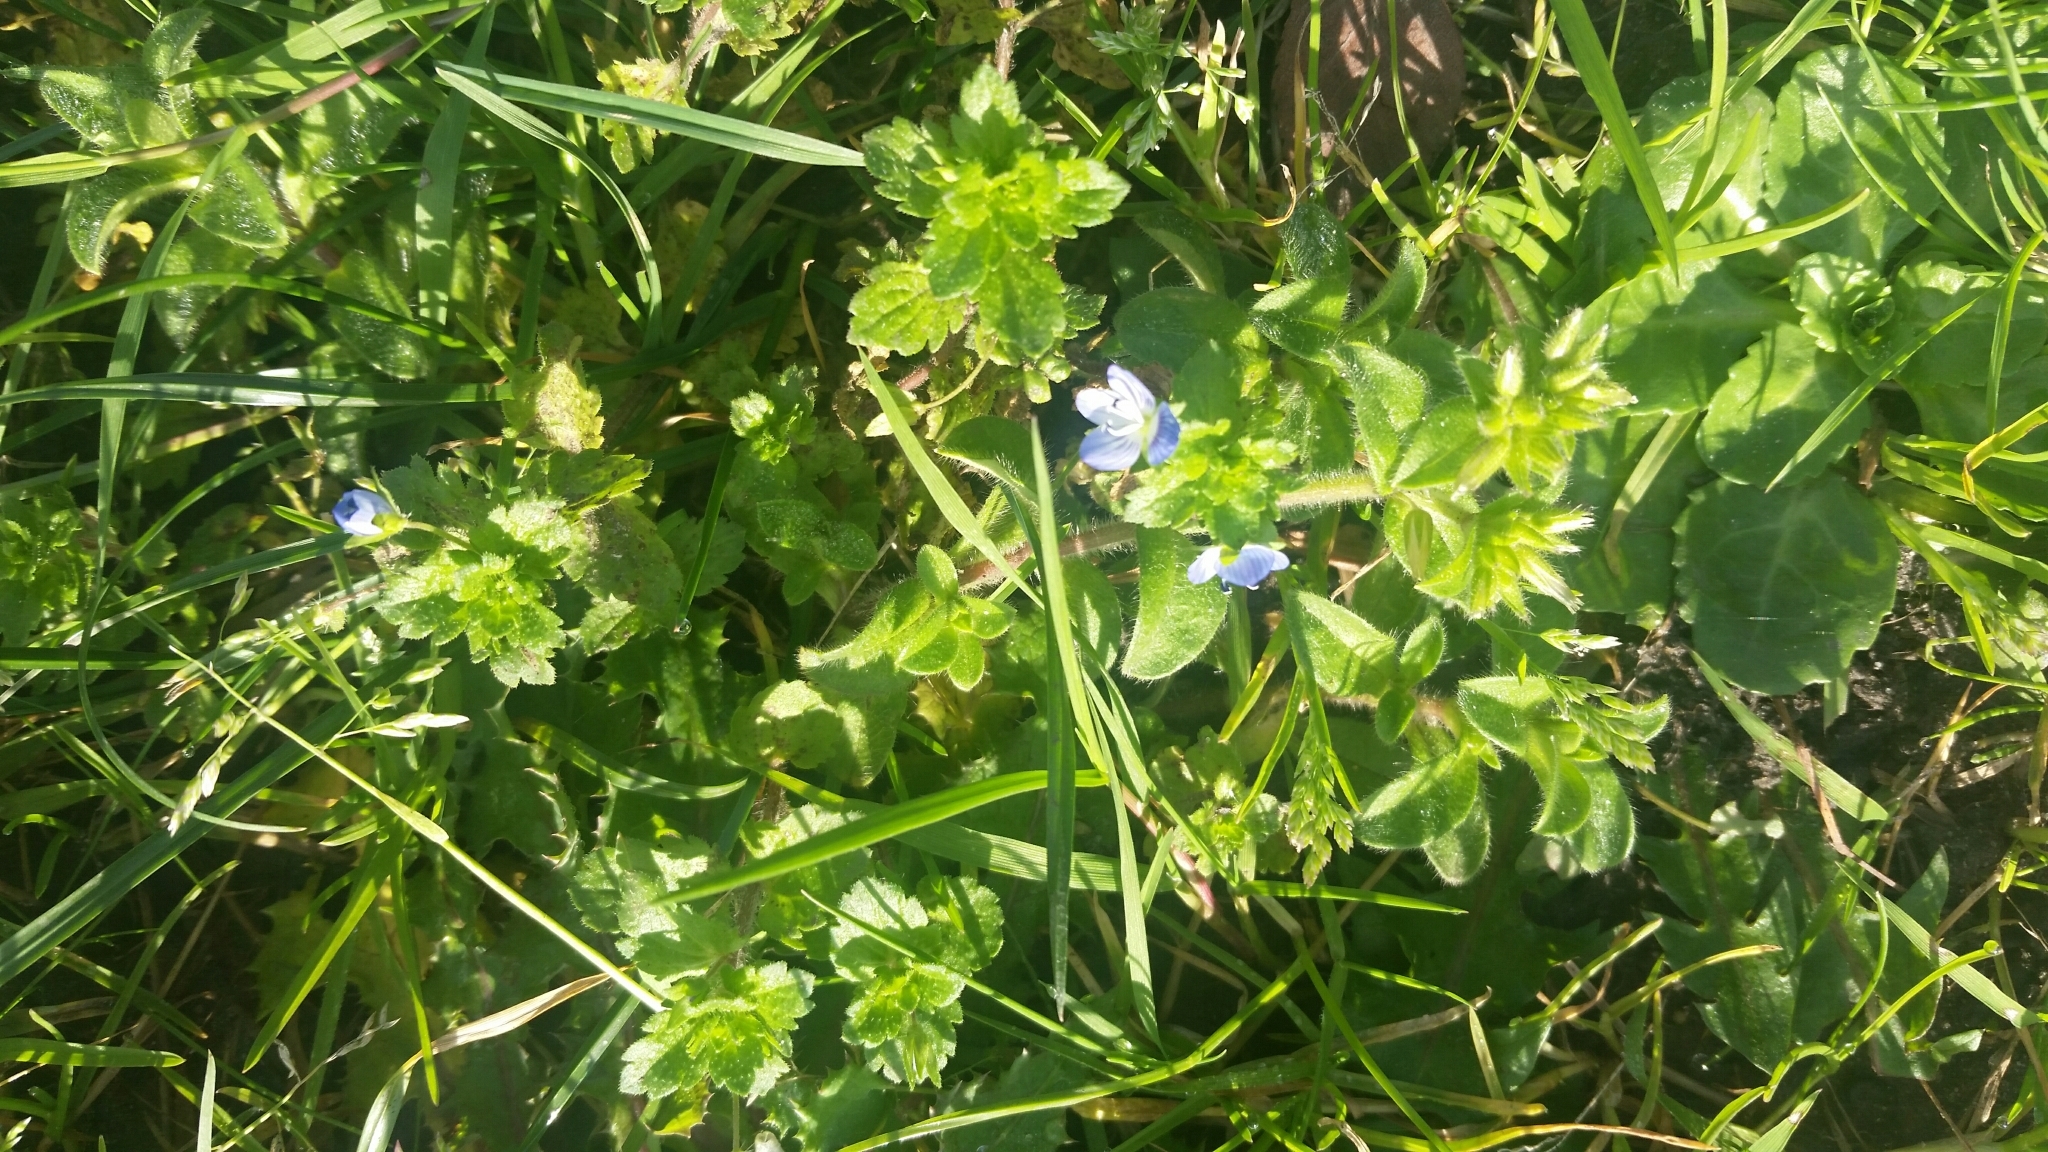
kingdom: Plantae
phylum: Tracheophyta
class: Magnoliopsida
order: Lamiales
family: Plantaginaceae
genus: Veronica
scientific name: Veronica persica
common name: Common field-speedwell
